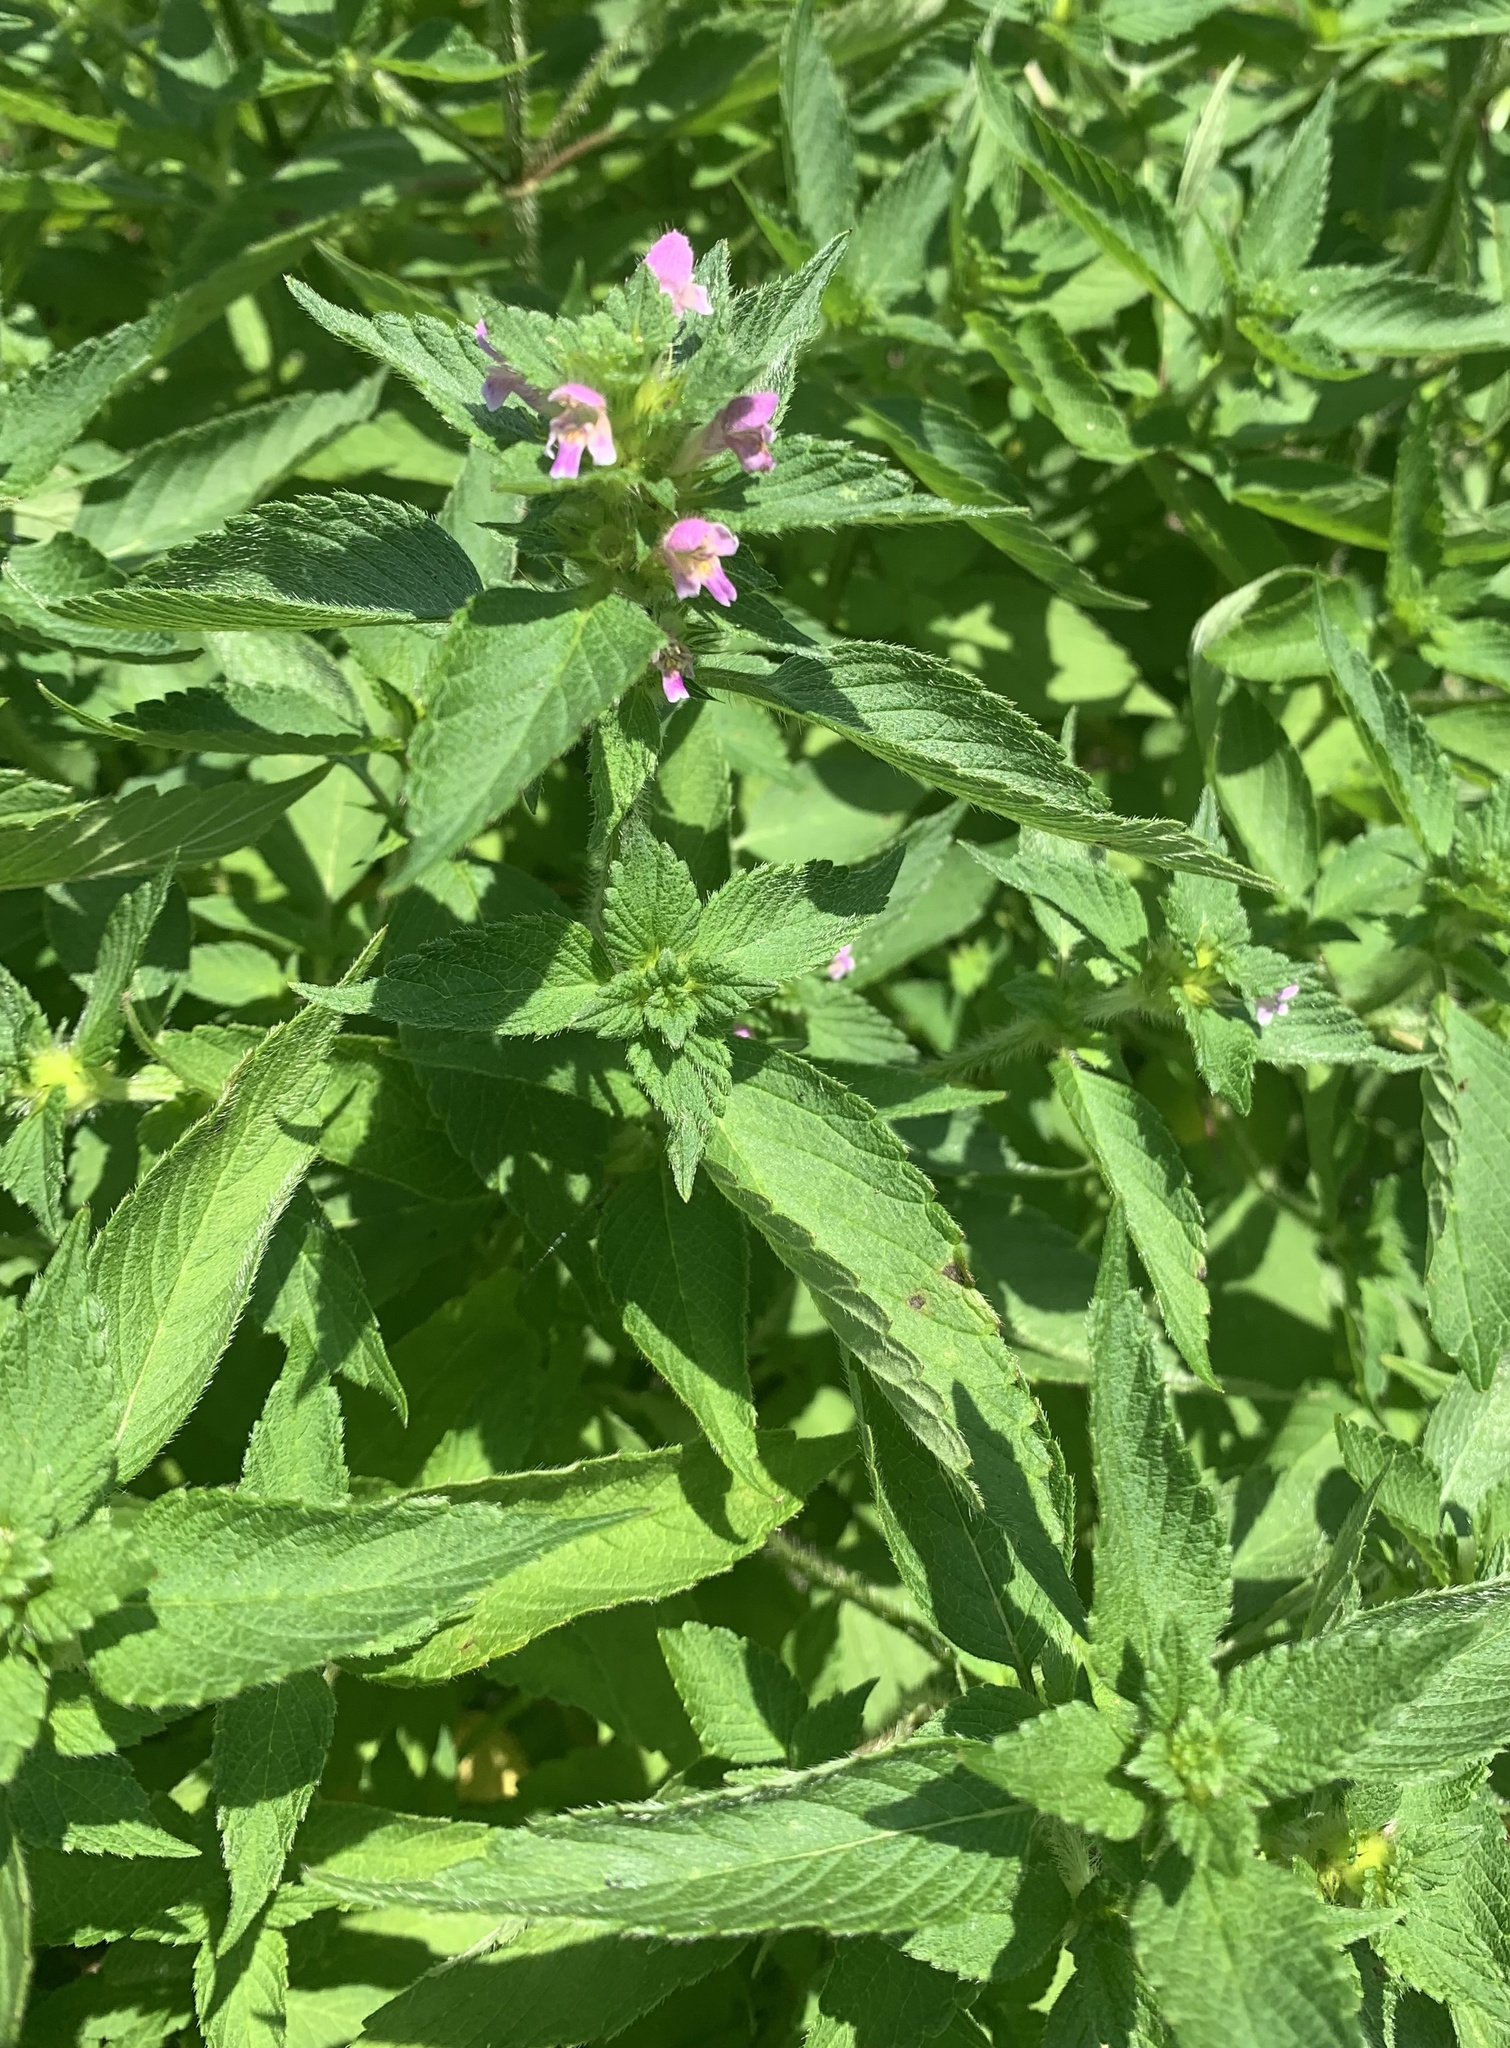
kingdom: Plantae
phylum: Tracheophyta
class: Magnoliopsida
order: Lamiales
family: Lamiaceae
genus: Galeopsis
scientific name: Galeopsis bifida
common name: Bifid hemp-nettle
